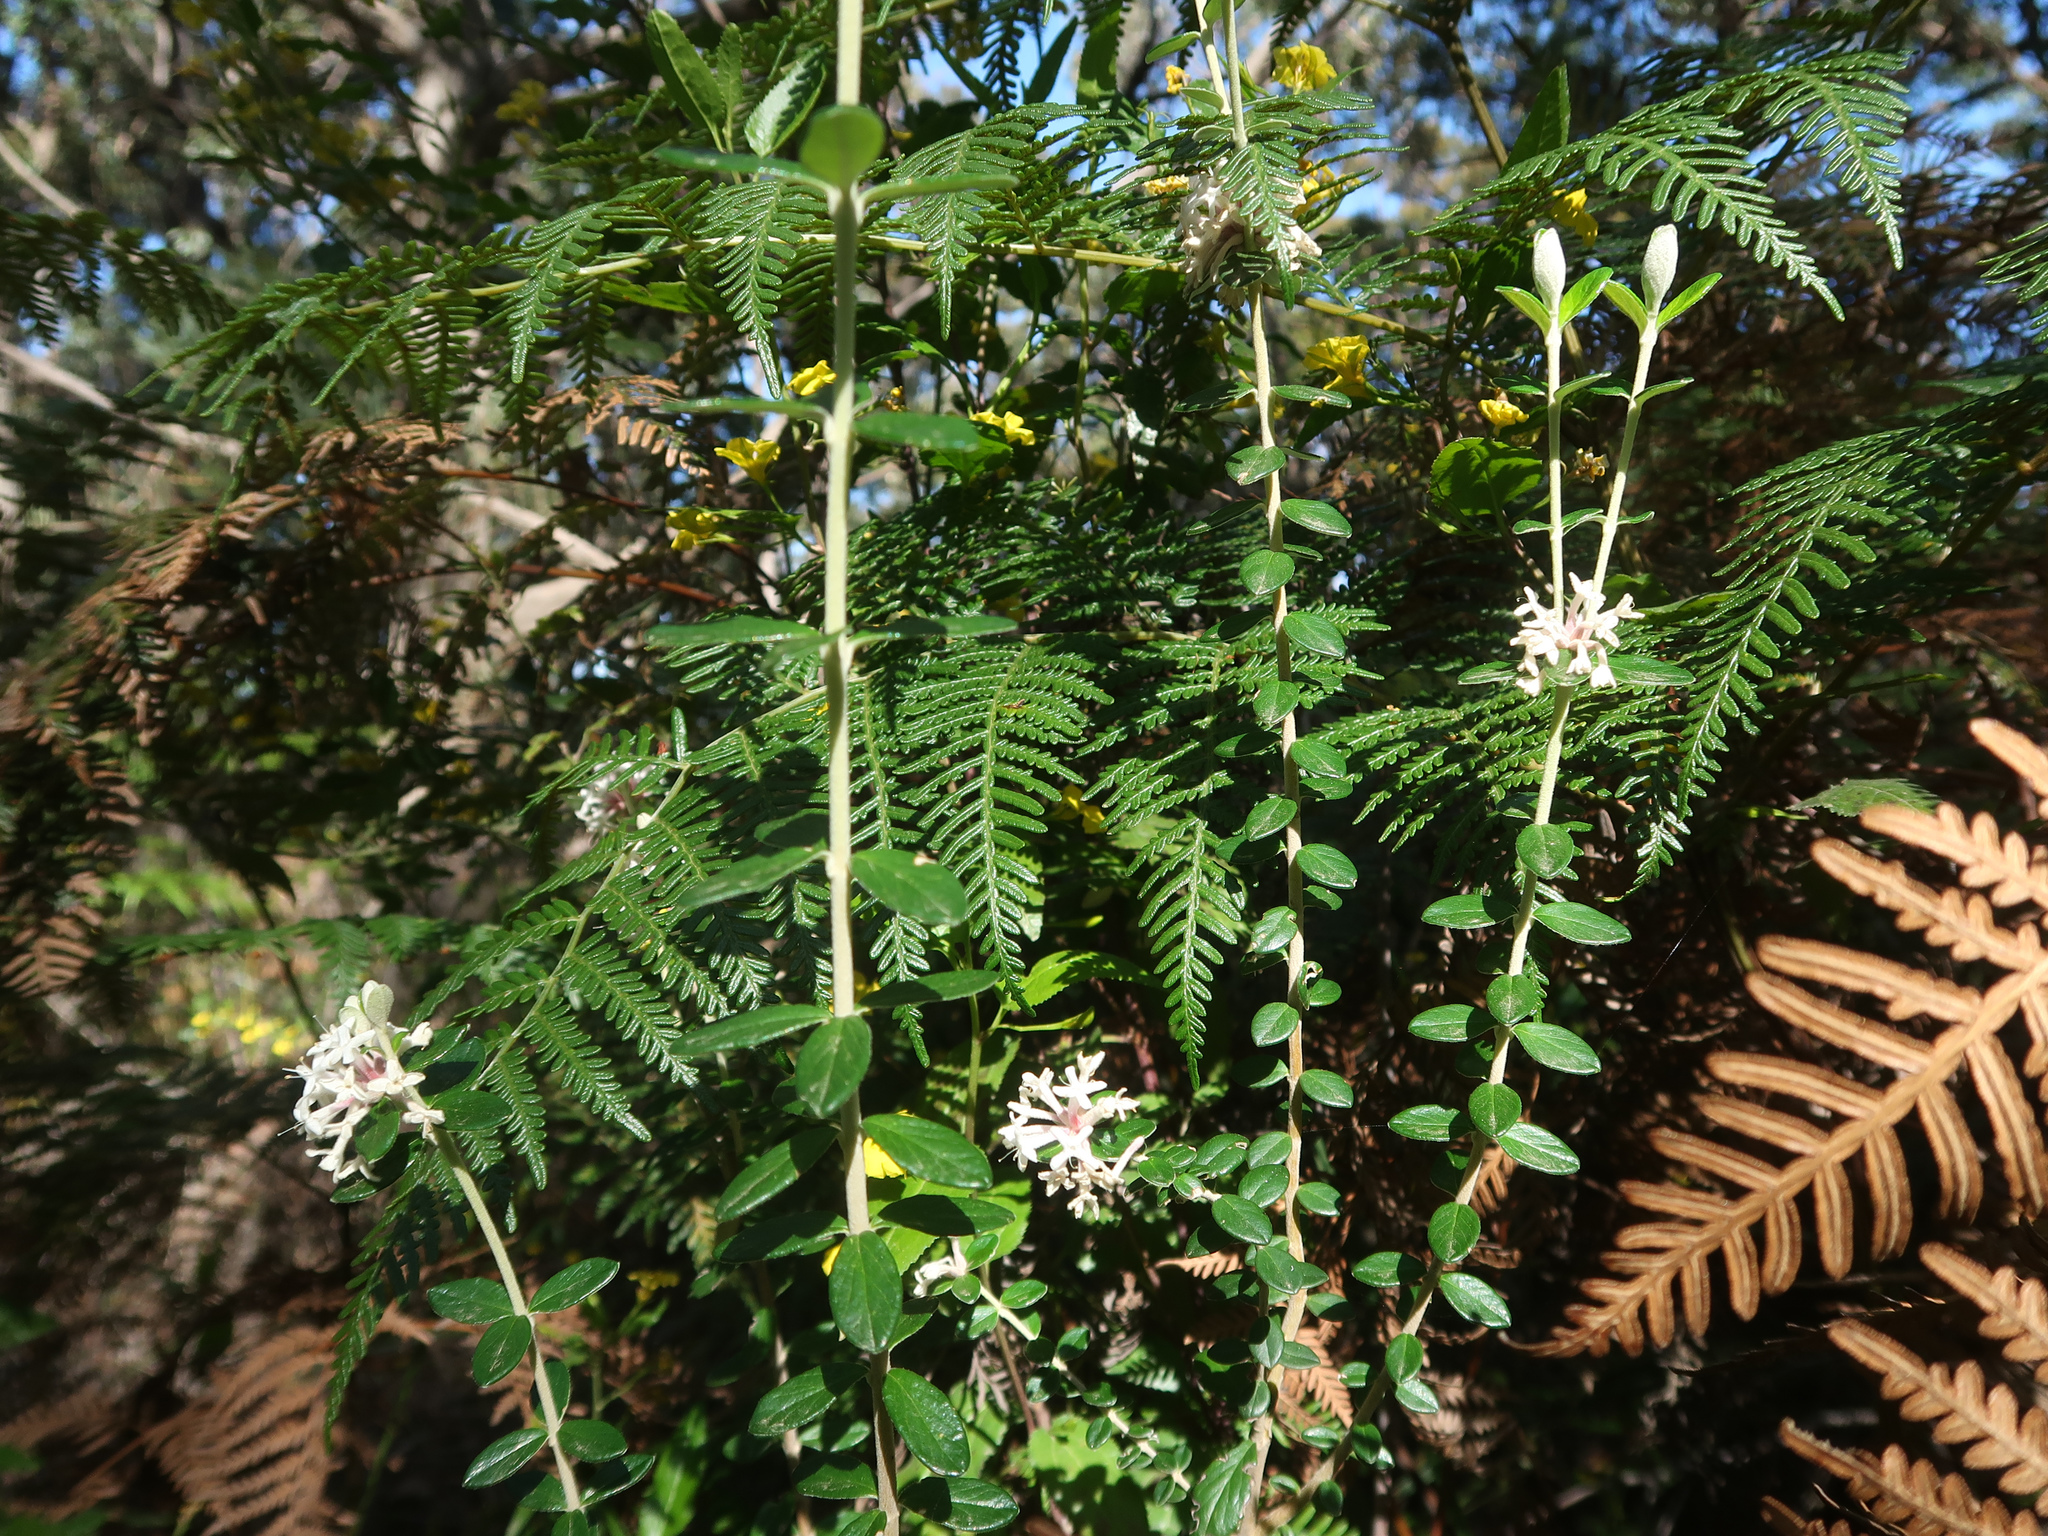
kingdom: Plantae
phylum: Tracheophyta
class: Magnoliopsida
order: Malvales
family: Thymelaeaceae
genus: Pimelea
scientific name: Pimelea nivea
